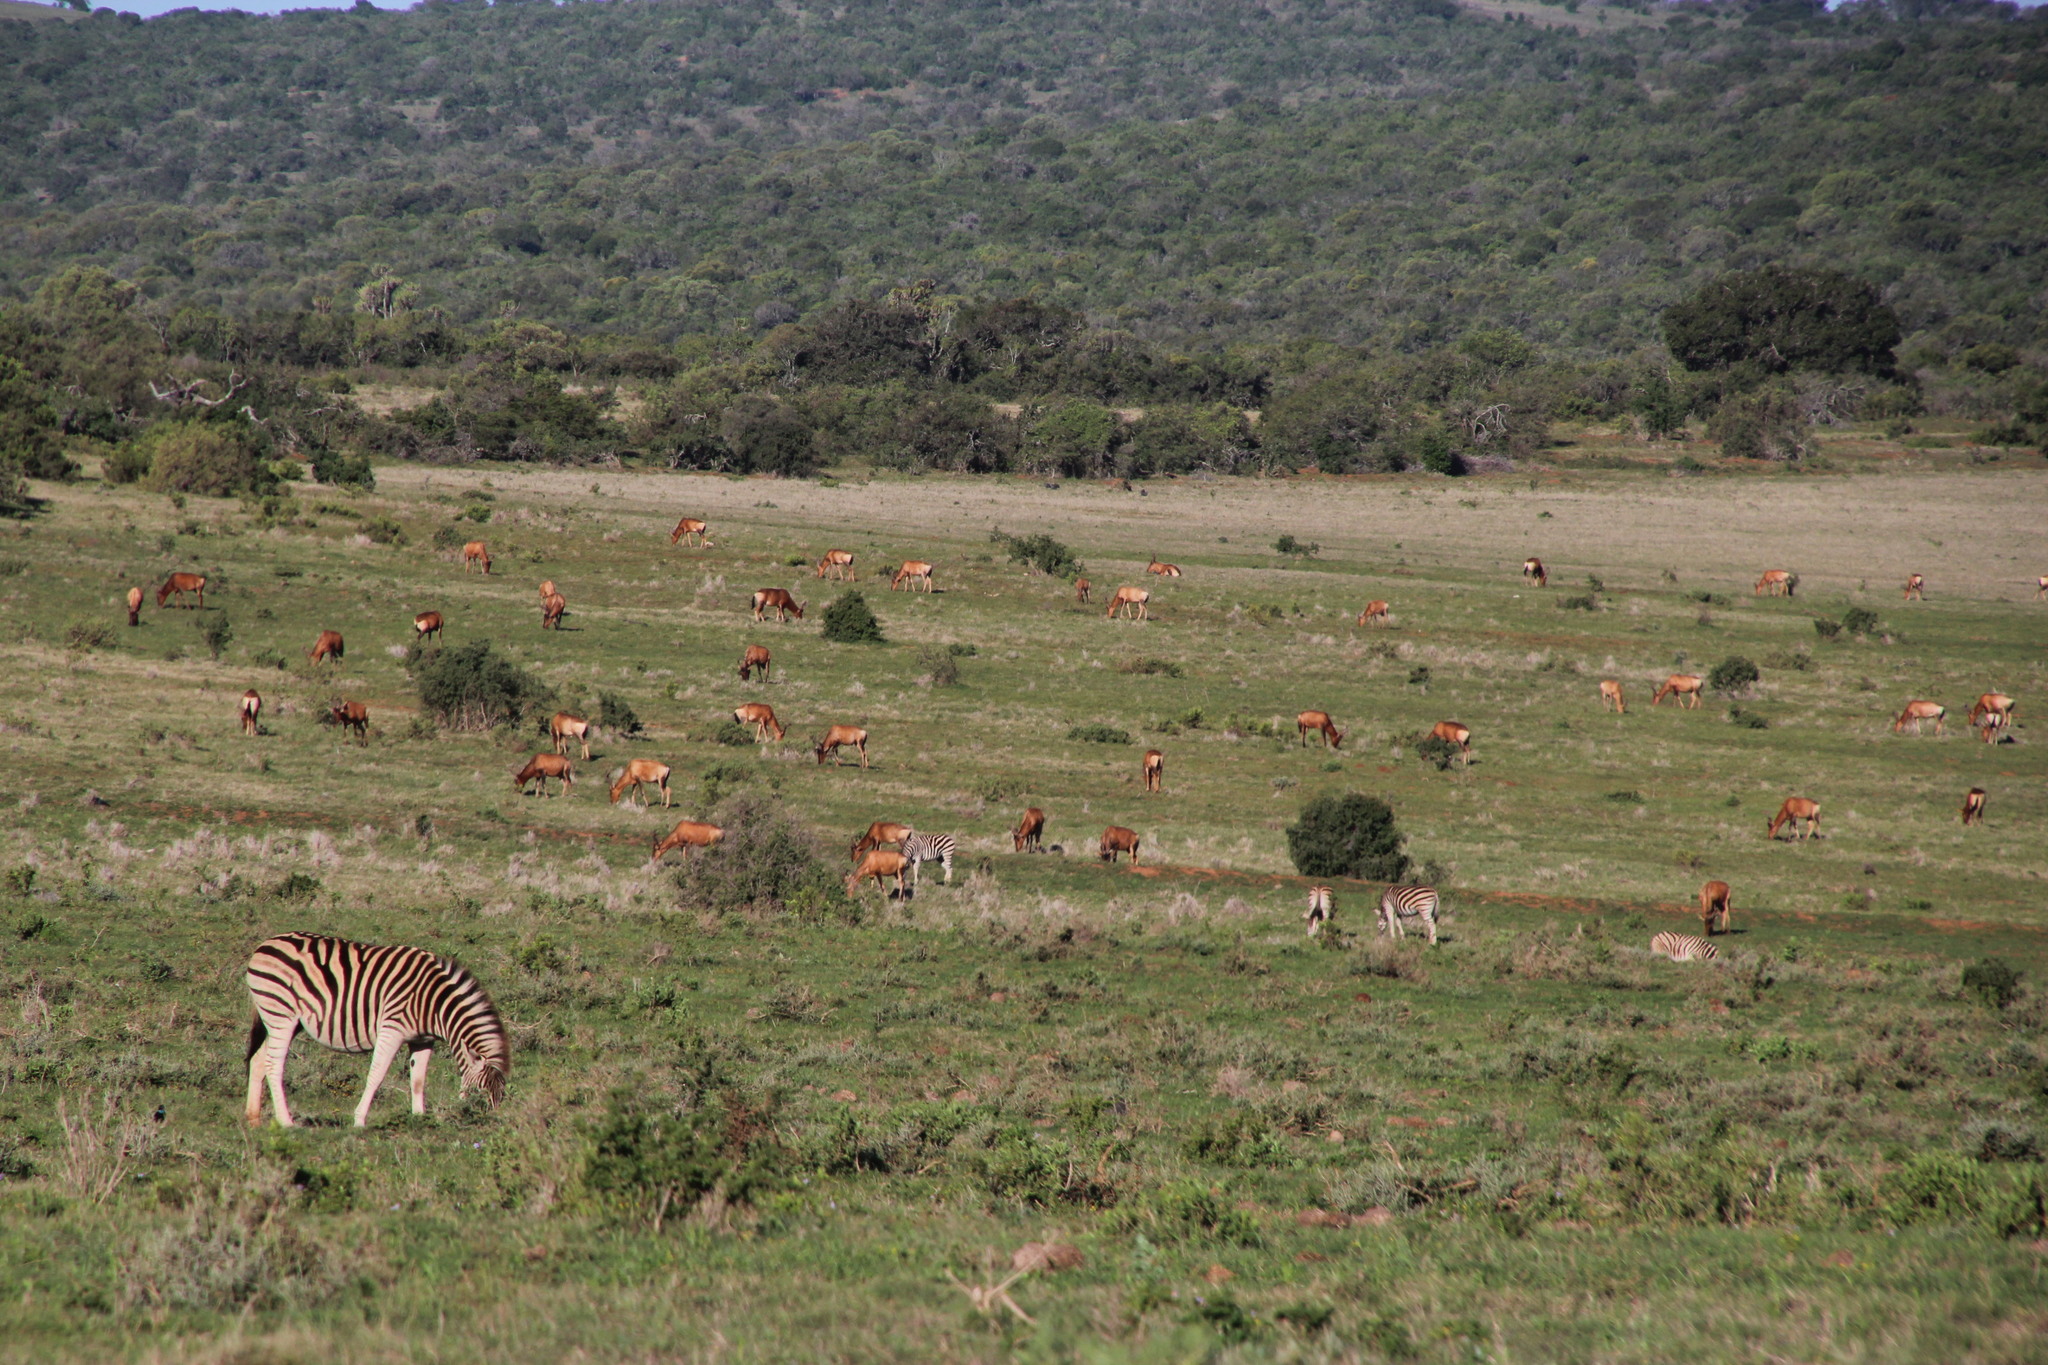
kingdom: Animalia
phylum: Chordata
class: Mammalia
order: Perissodactyla
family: Equidae
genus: Equus
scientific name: Equus quagga
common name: Plains zebra
